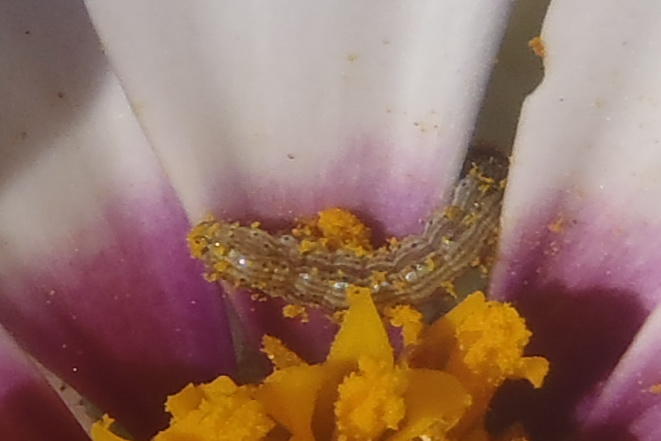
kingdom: Animalia
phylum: Arthropoda
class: Insecta
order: Lepidoptera
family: Noctuidae
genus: Helicoverpa
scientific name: Helicoverpa armigera
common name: Cotton bollworm
